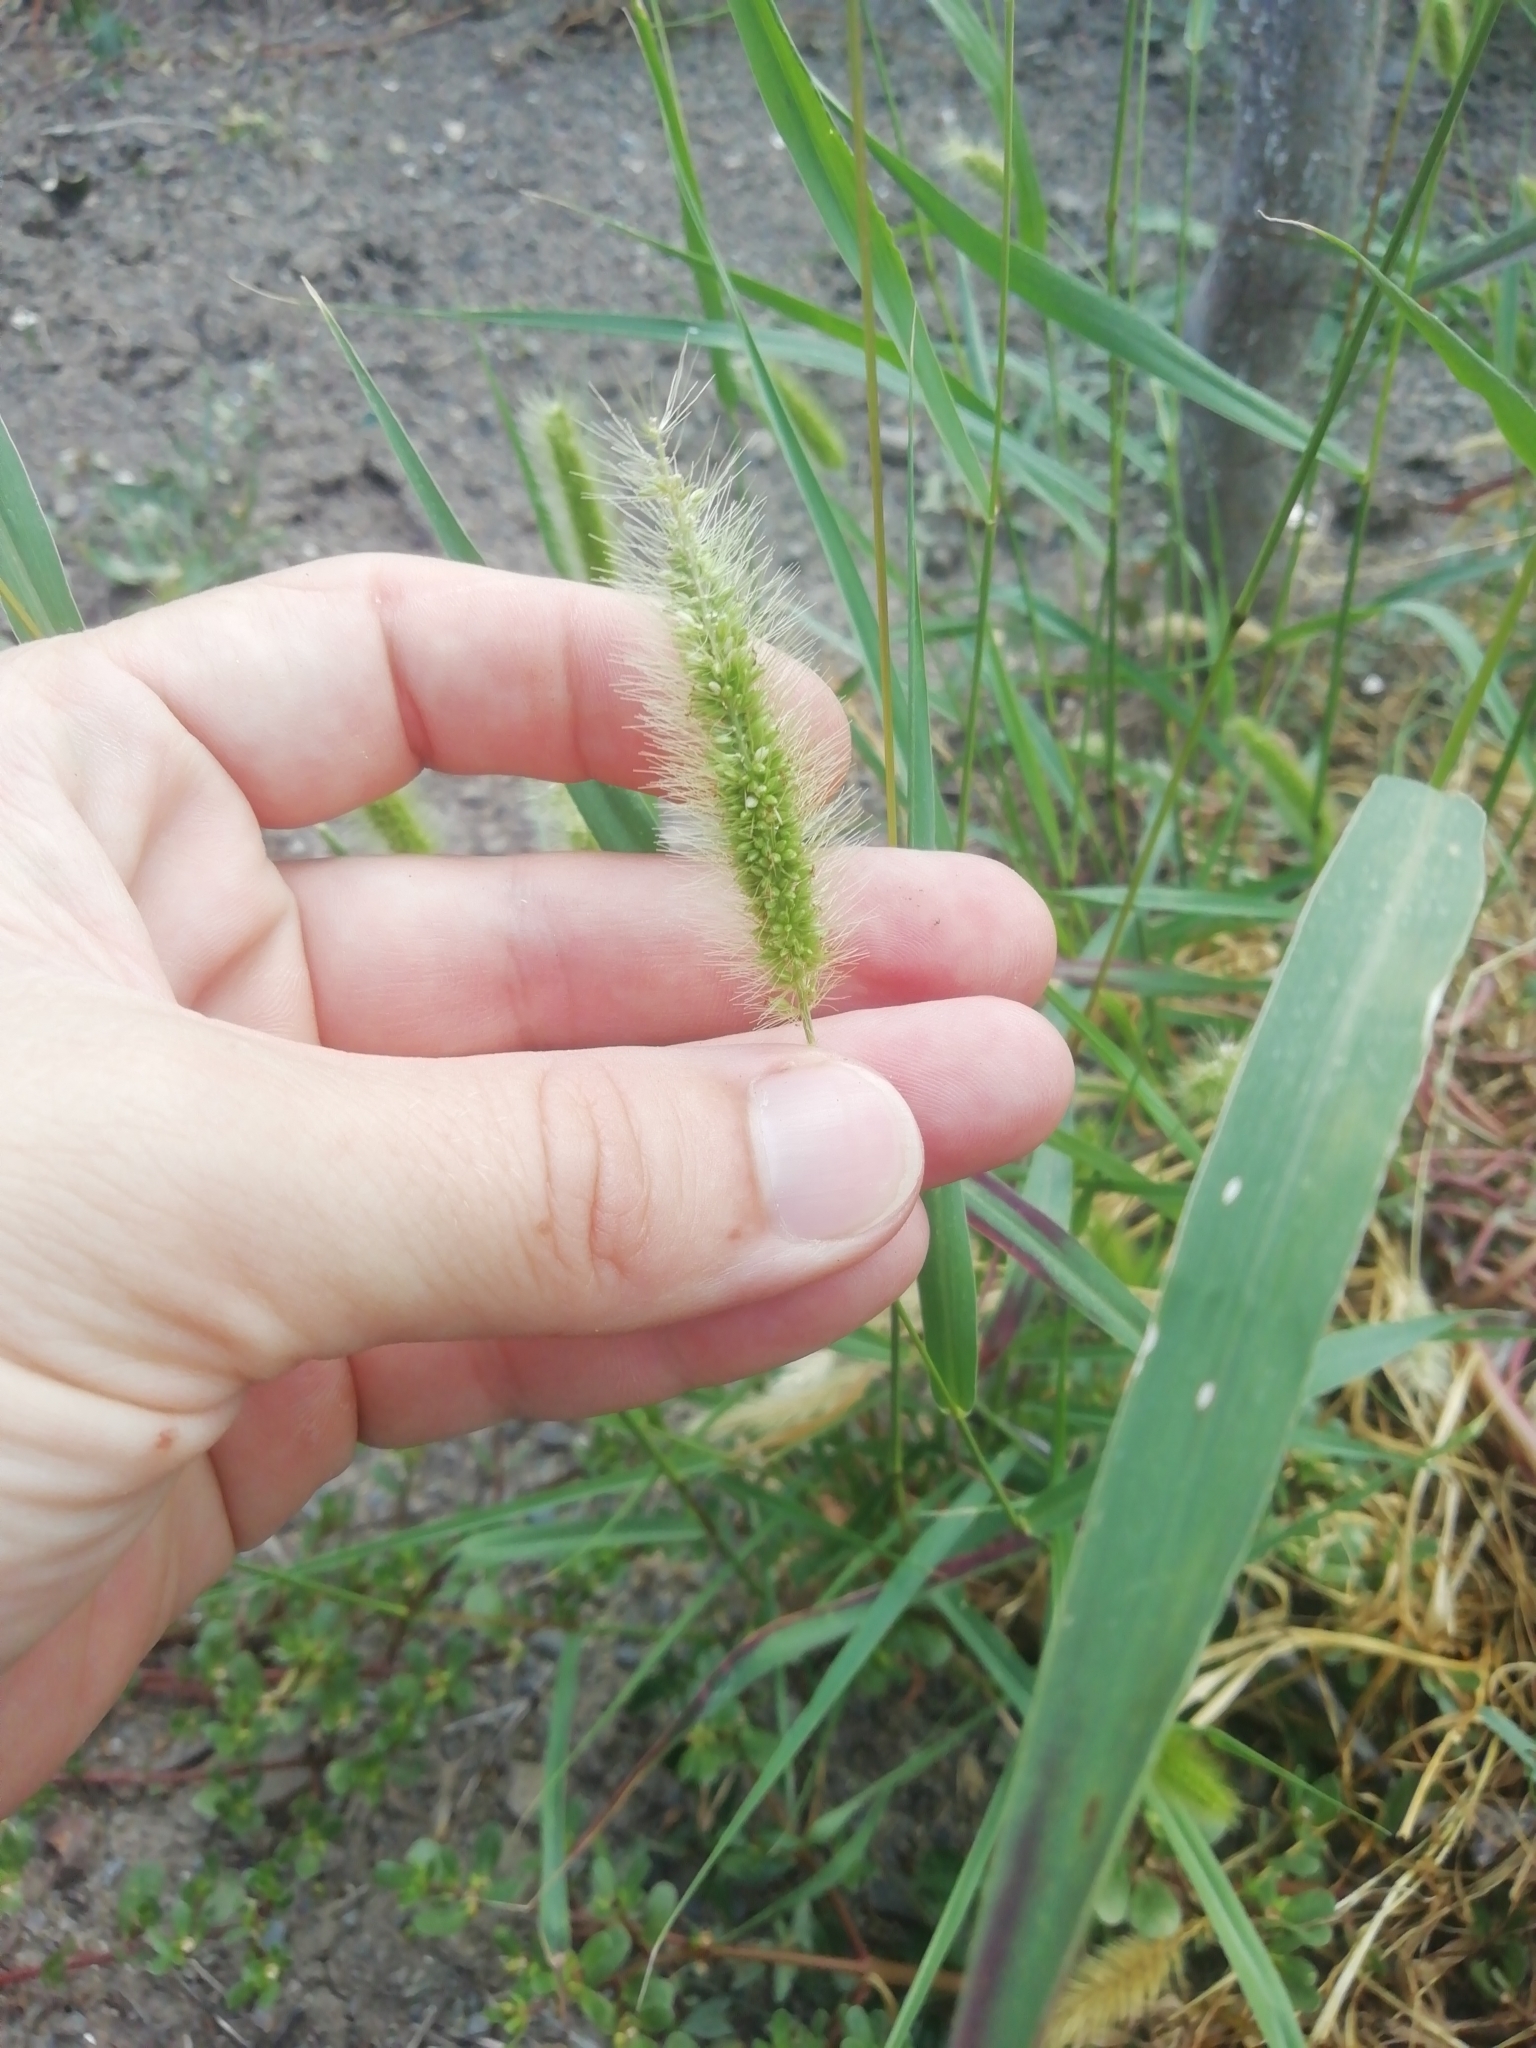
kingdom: Plantae
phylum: Tracheophyta
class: Liliopsida
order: Poales
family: Poaceae
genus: Setaria
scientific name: Setaria viridis
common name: Green bristlegrass
